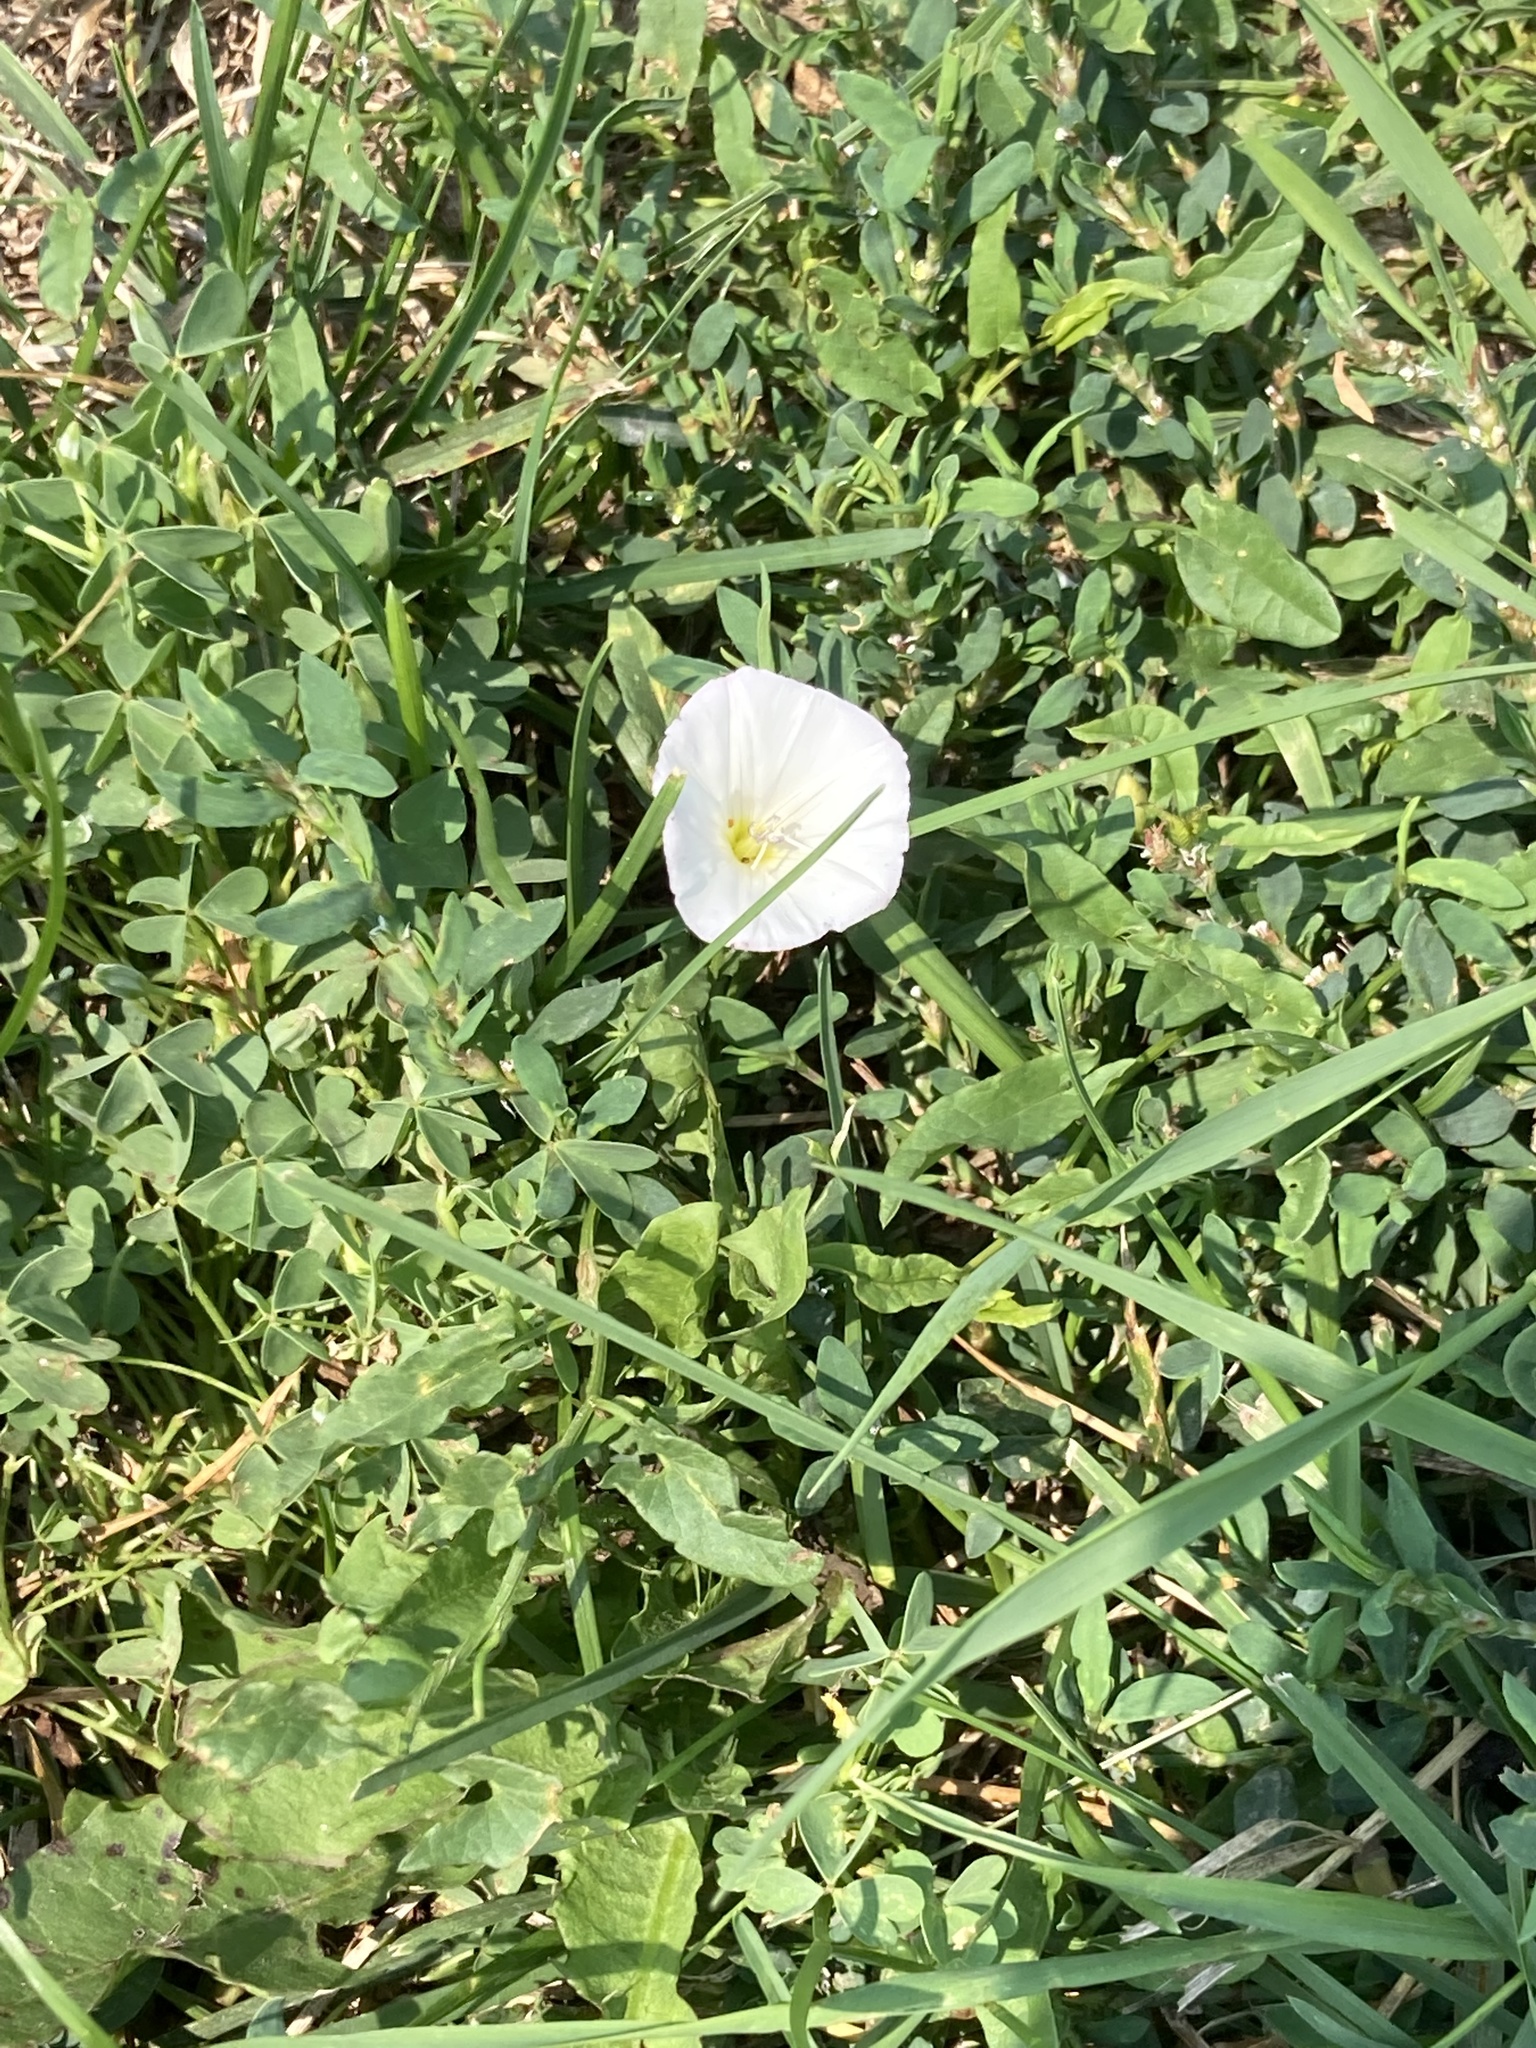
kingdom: Plantae
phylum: Tracheophyta
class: Magnoliopsida
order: Solanales
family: Convolvulaceae
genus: Convolvulus
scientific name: Convolvulus arvensis
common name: Field bindweed
